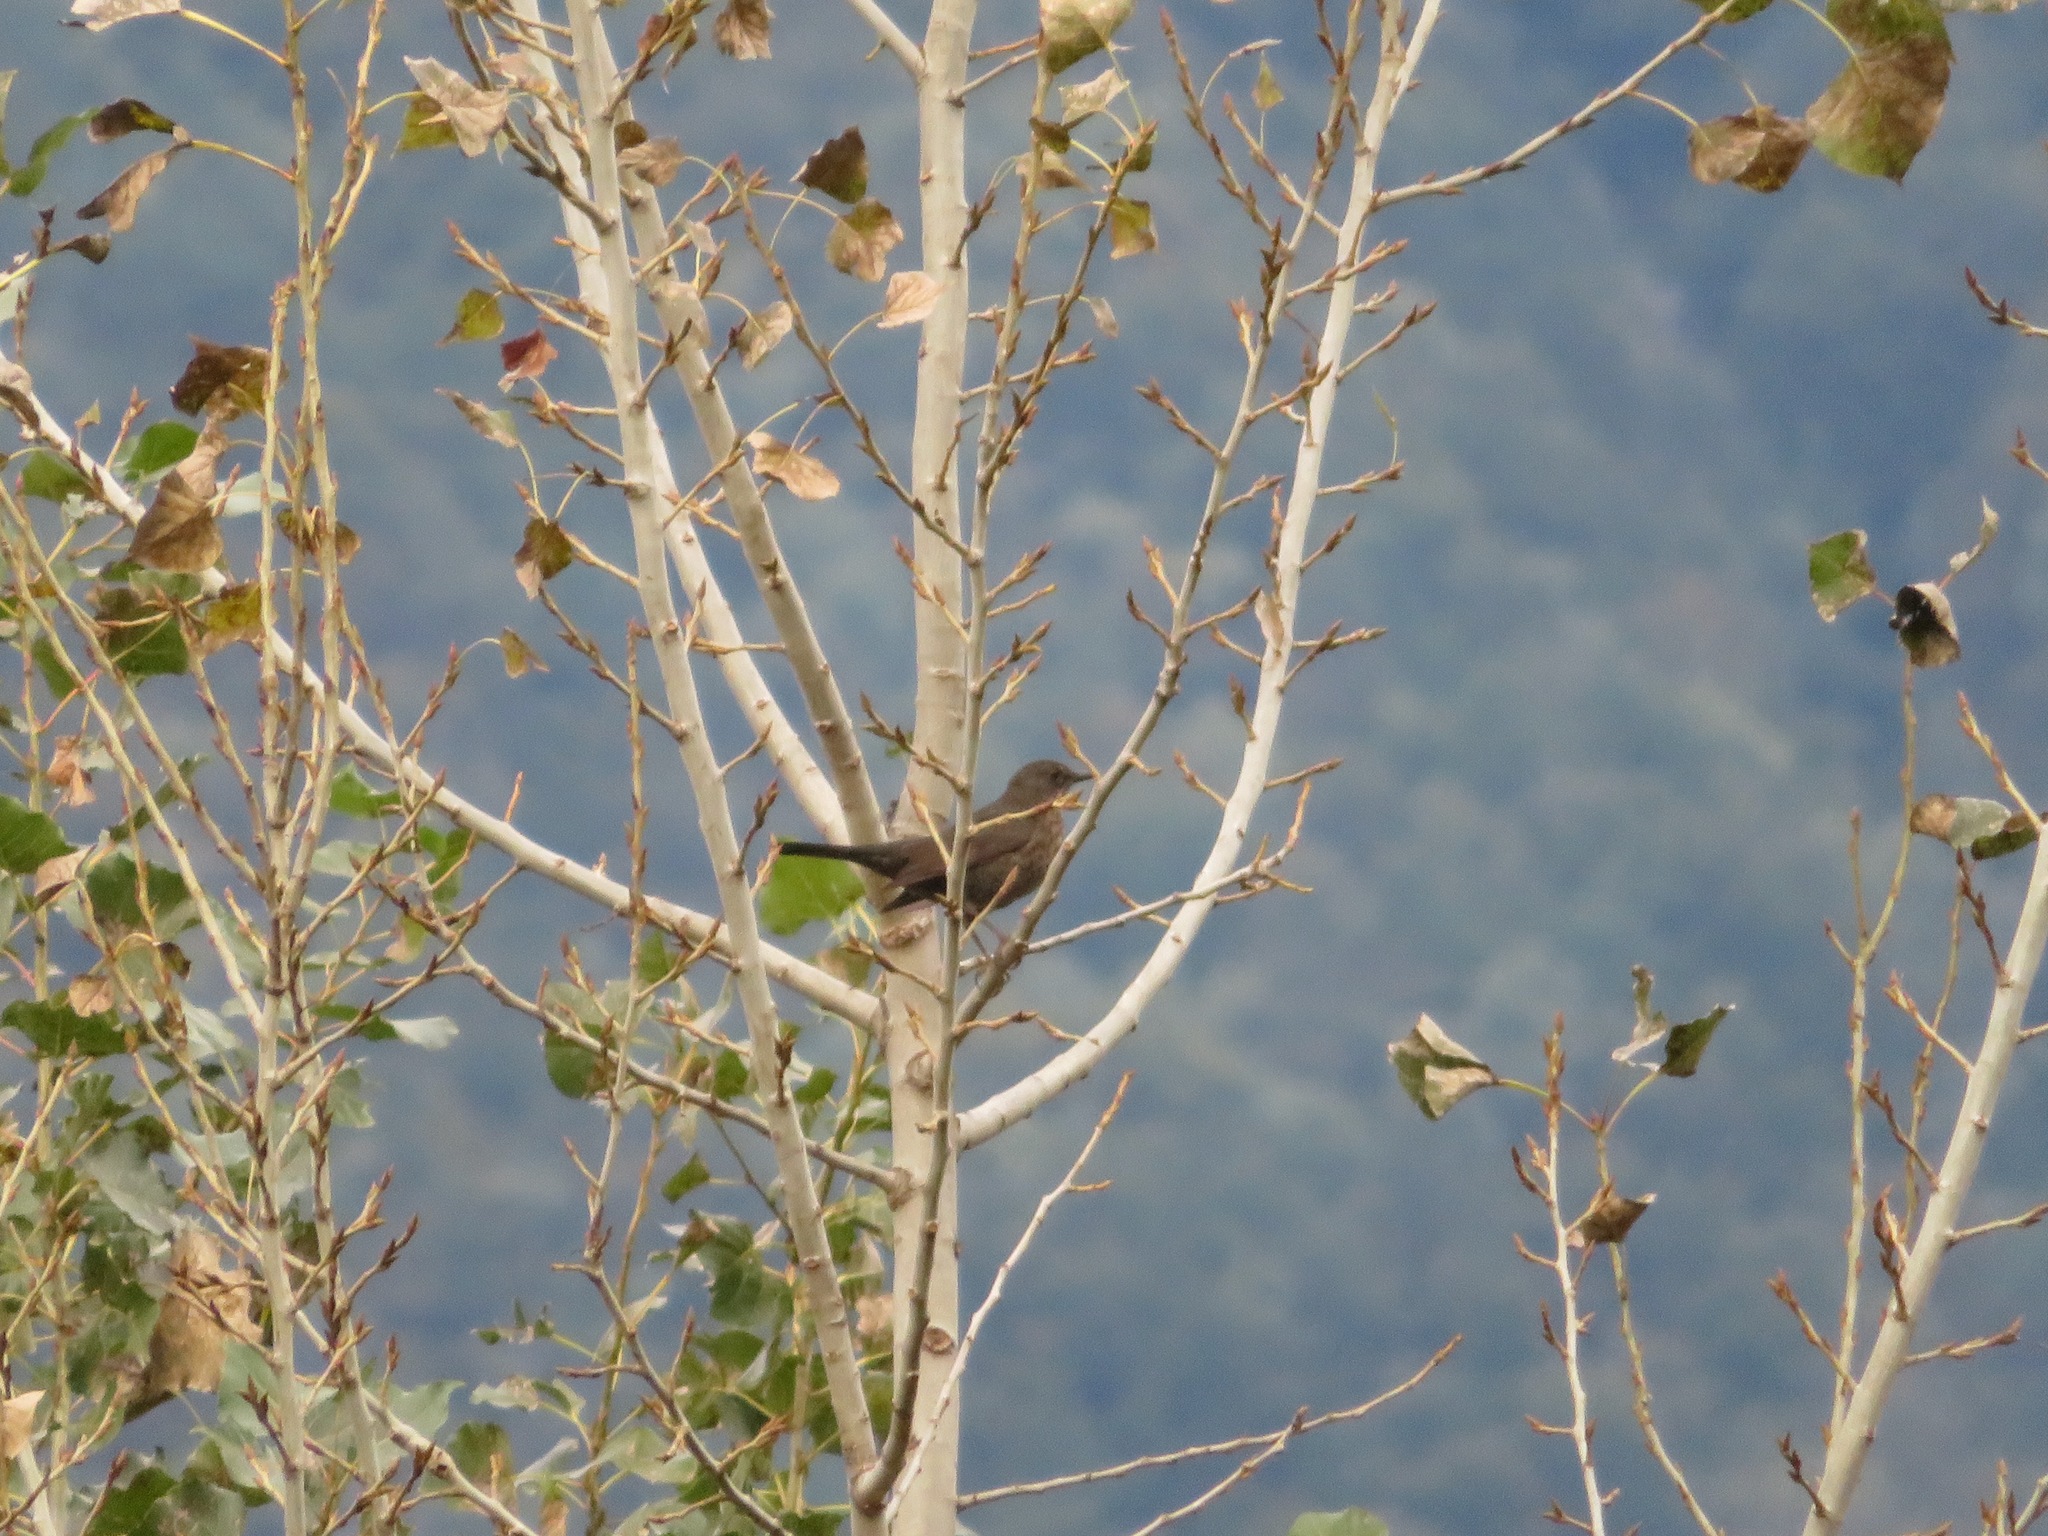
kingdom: Animalia
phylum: Chordata
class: Aves
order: Passeriformes
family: Turdidae
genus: Turdus
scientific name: Turdus merula
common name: Common blackbird
